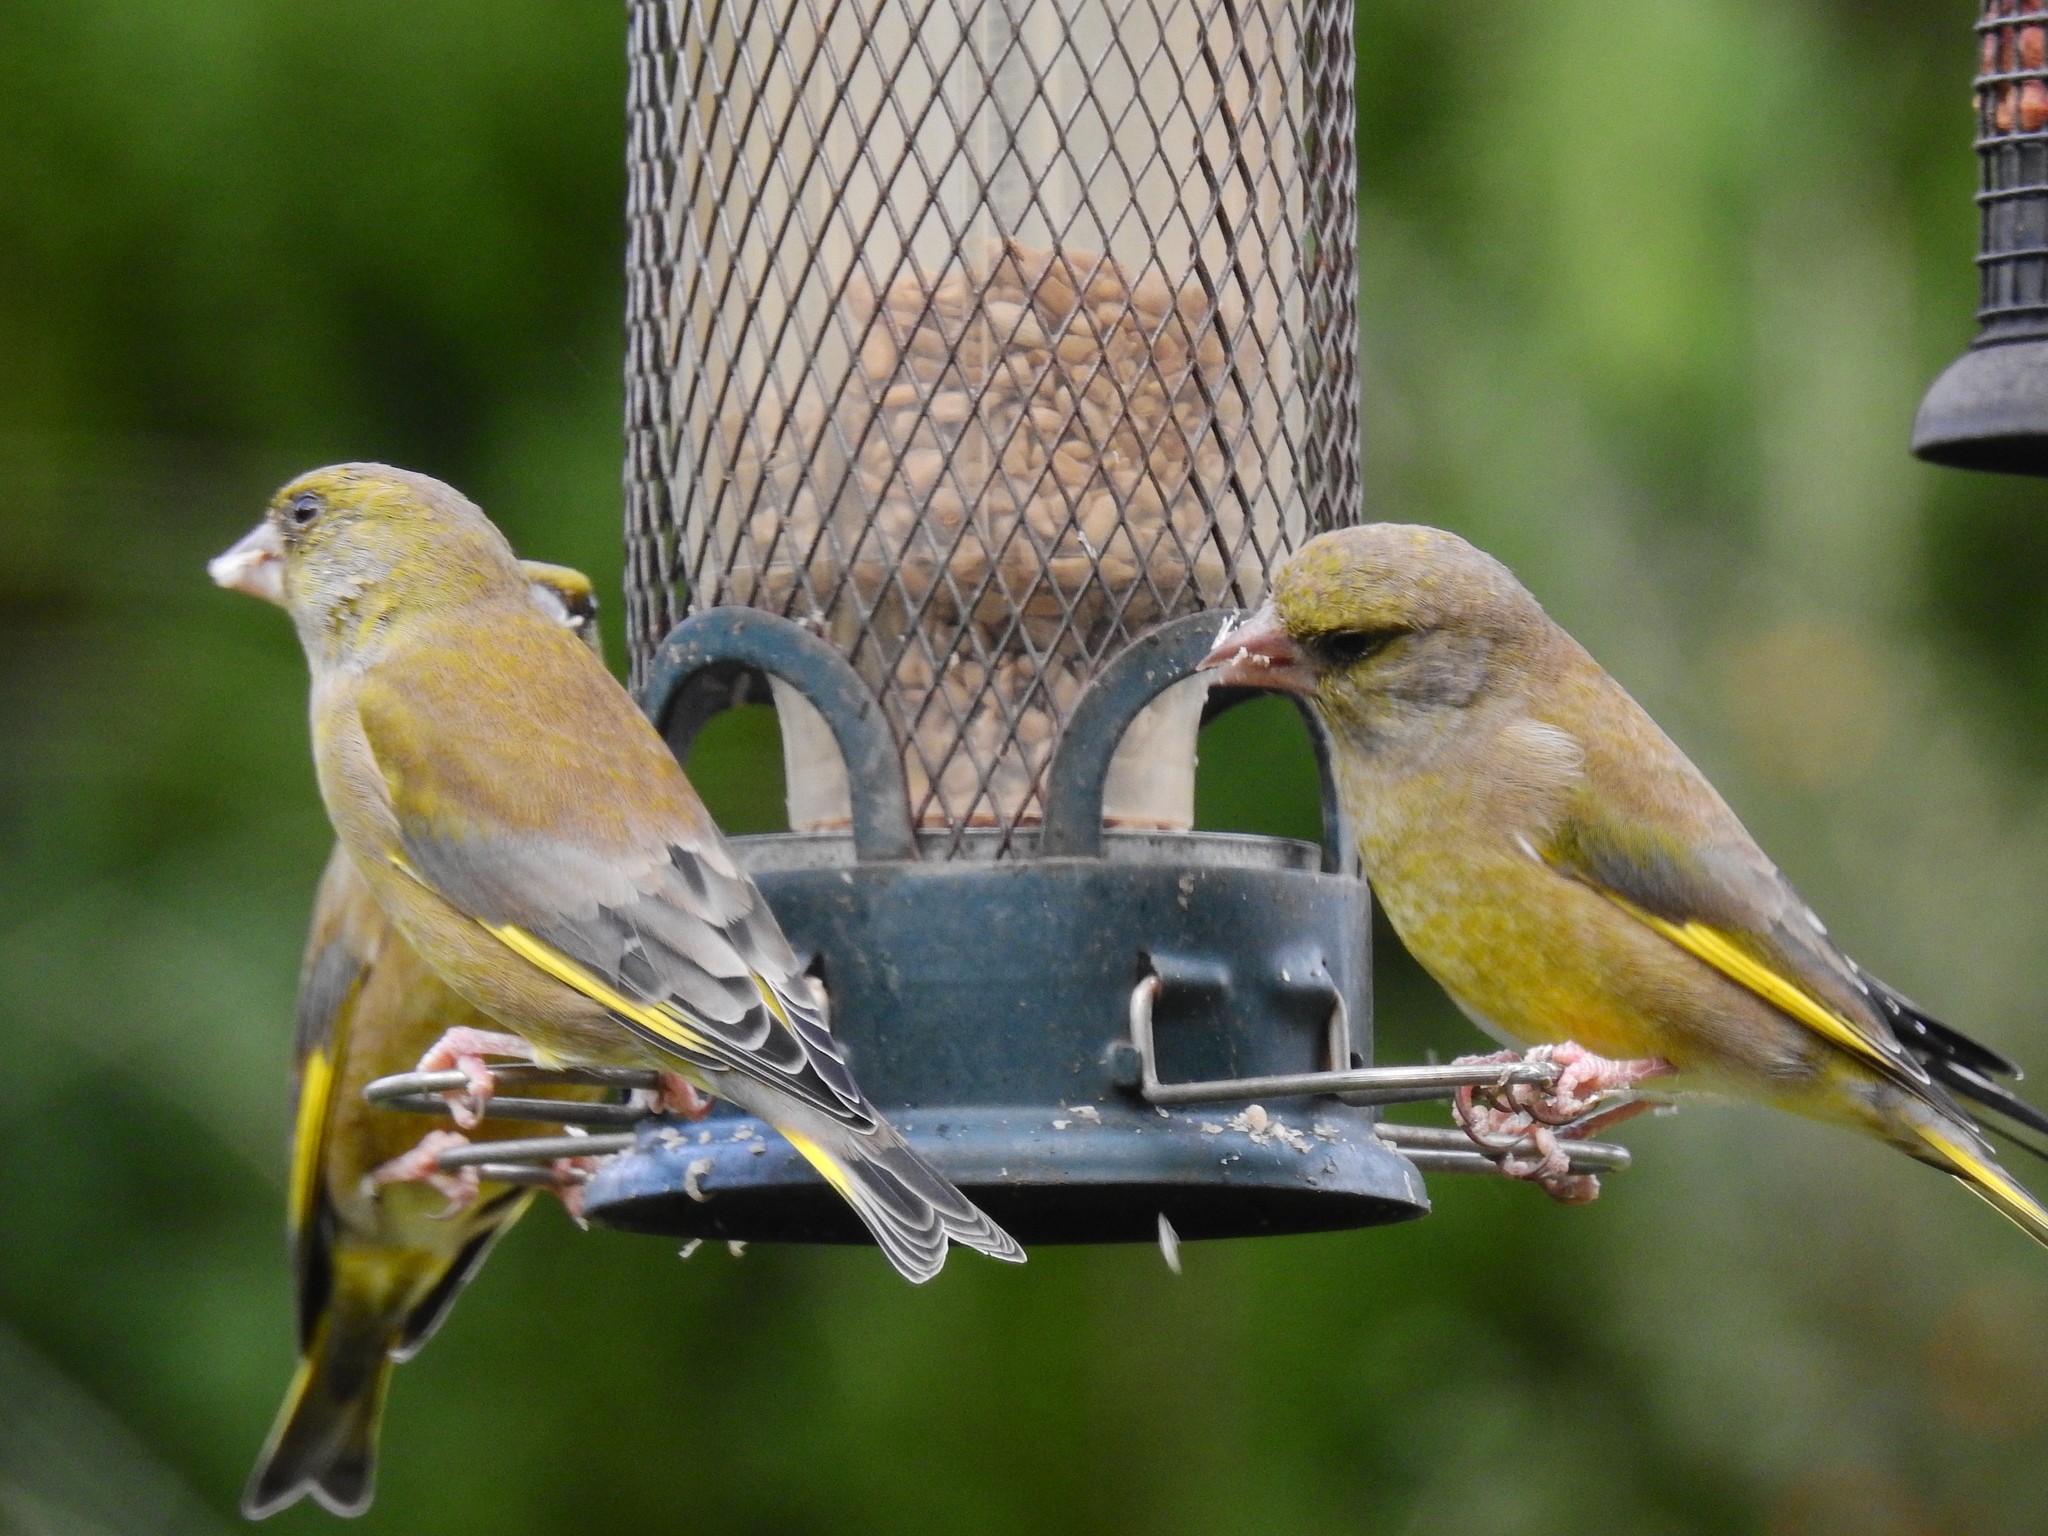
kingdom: Plantae
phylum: Tracheophyta
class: Liliopsida
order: Poales
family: Poaceae
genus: Chloris
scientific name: Chloris chloris
